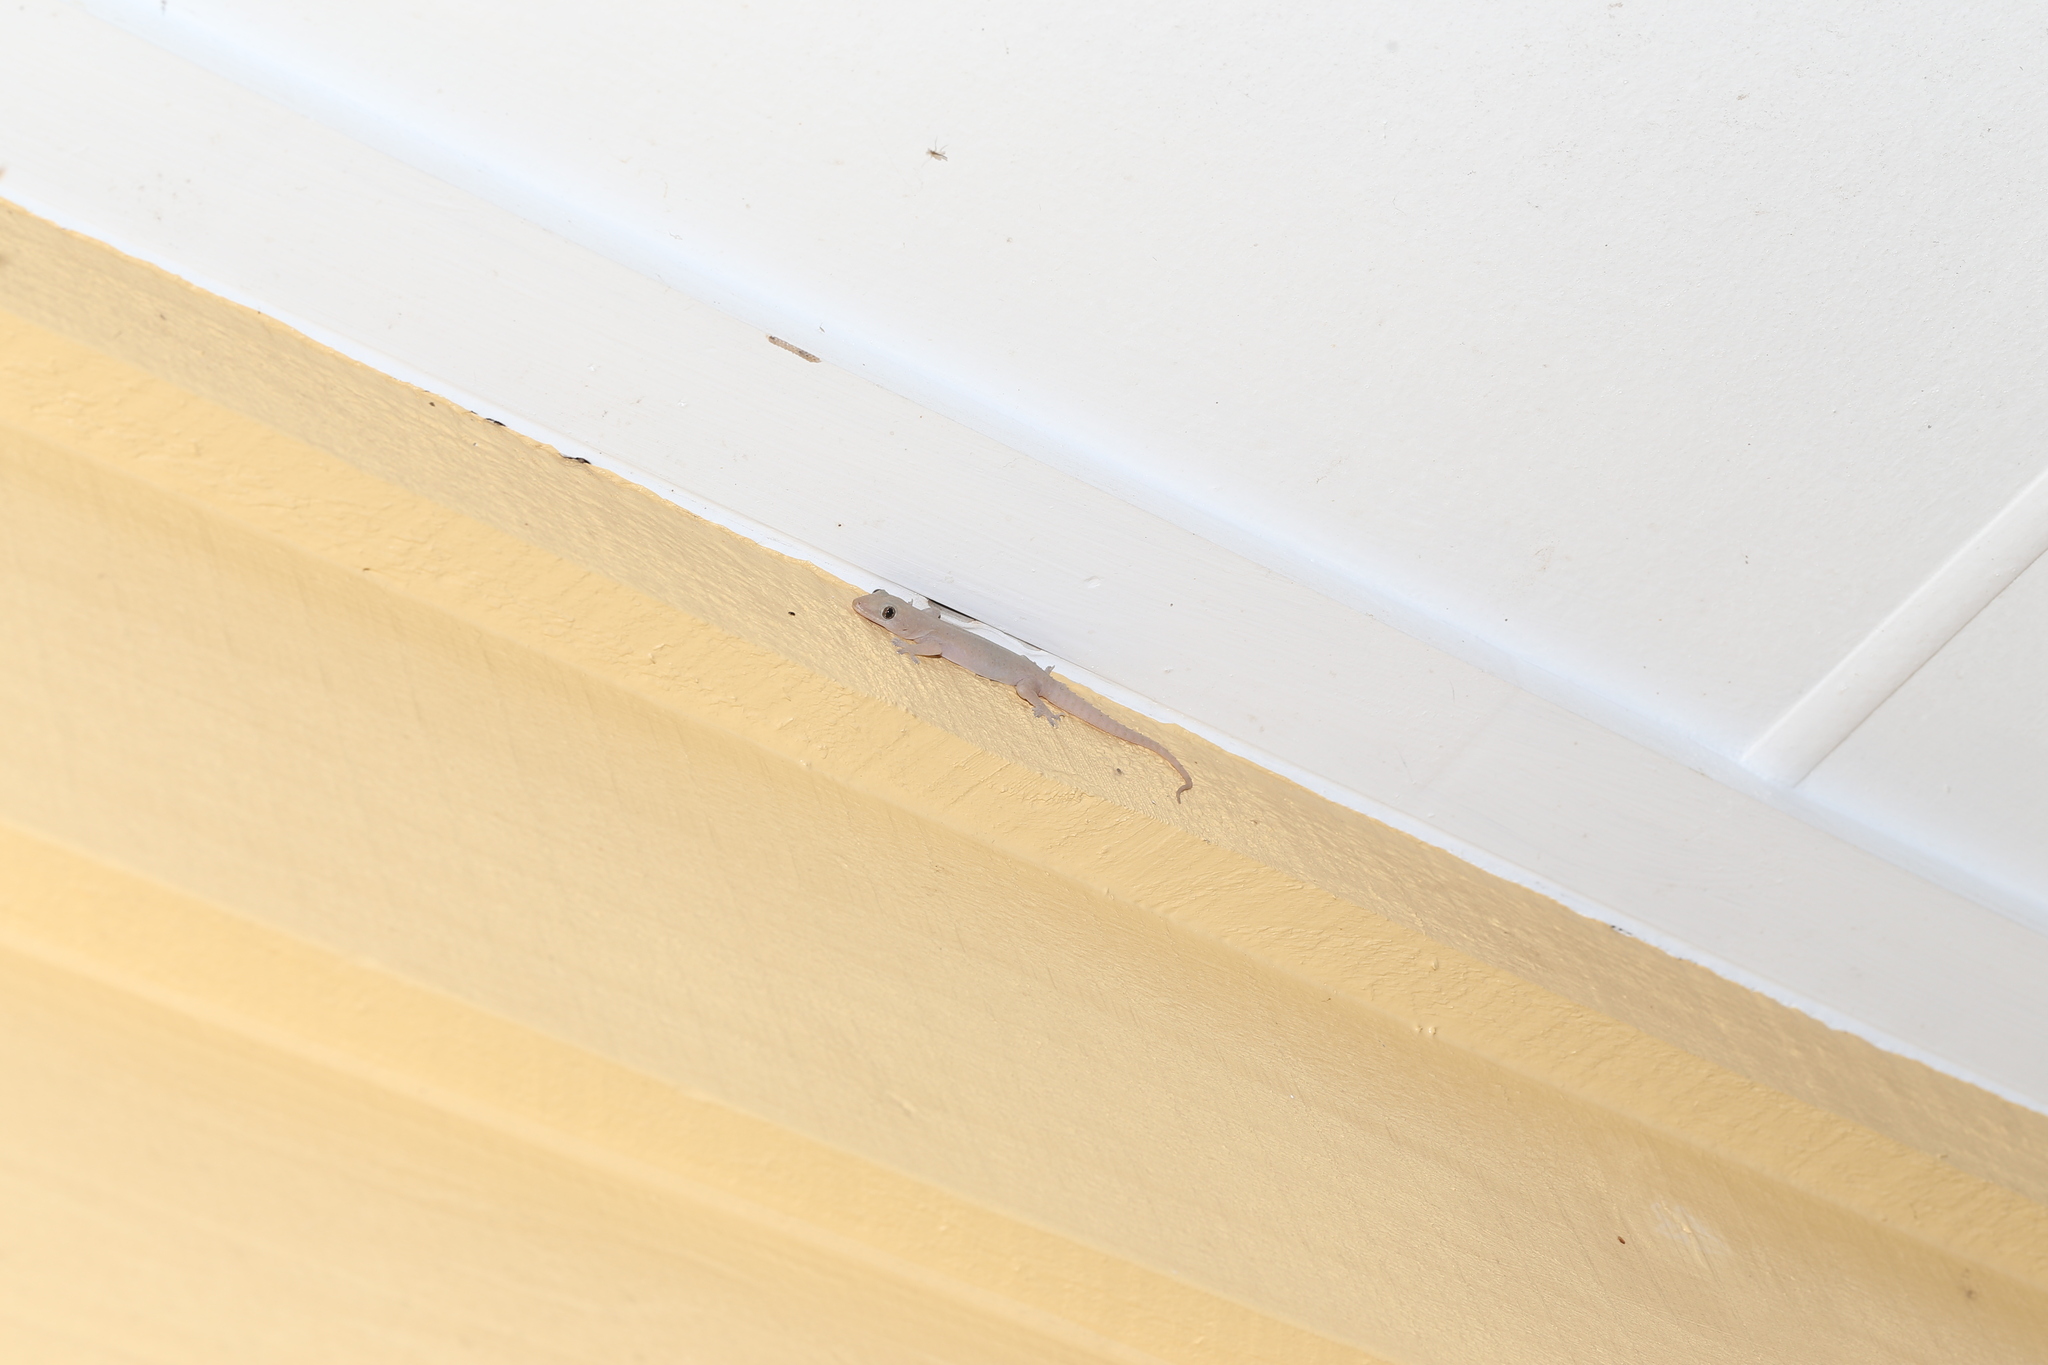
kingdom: Animalia
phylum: Chordata
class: Squamata
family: Gekkonidae
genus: Hemidactylus
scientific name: Hemidactylus frenatus
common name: Common house gecko
